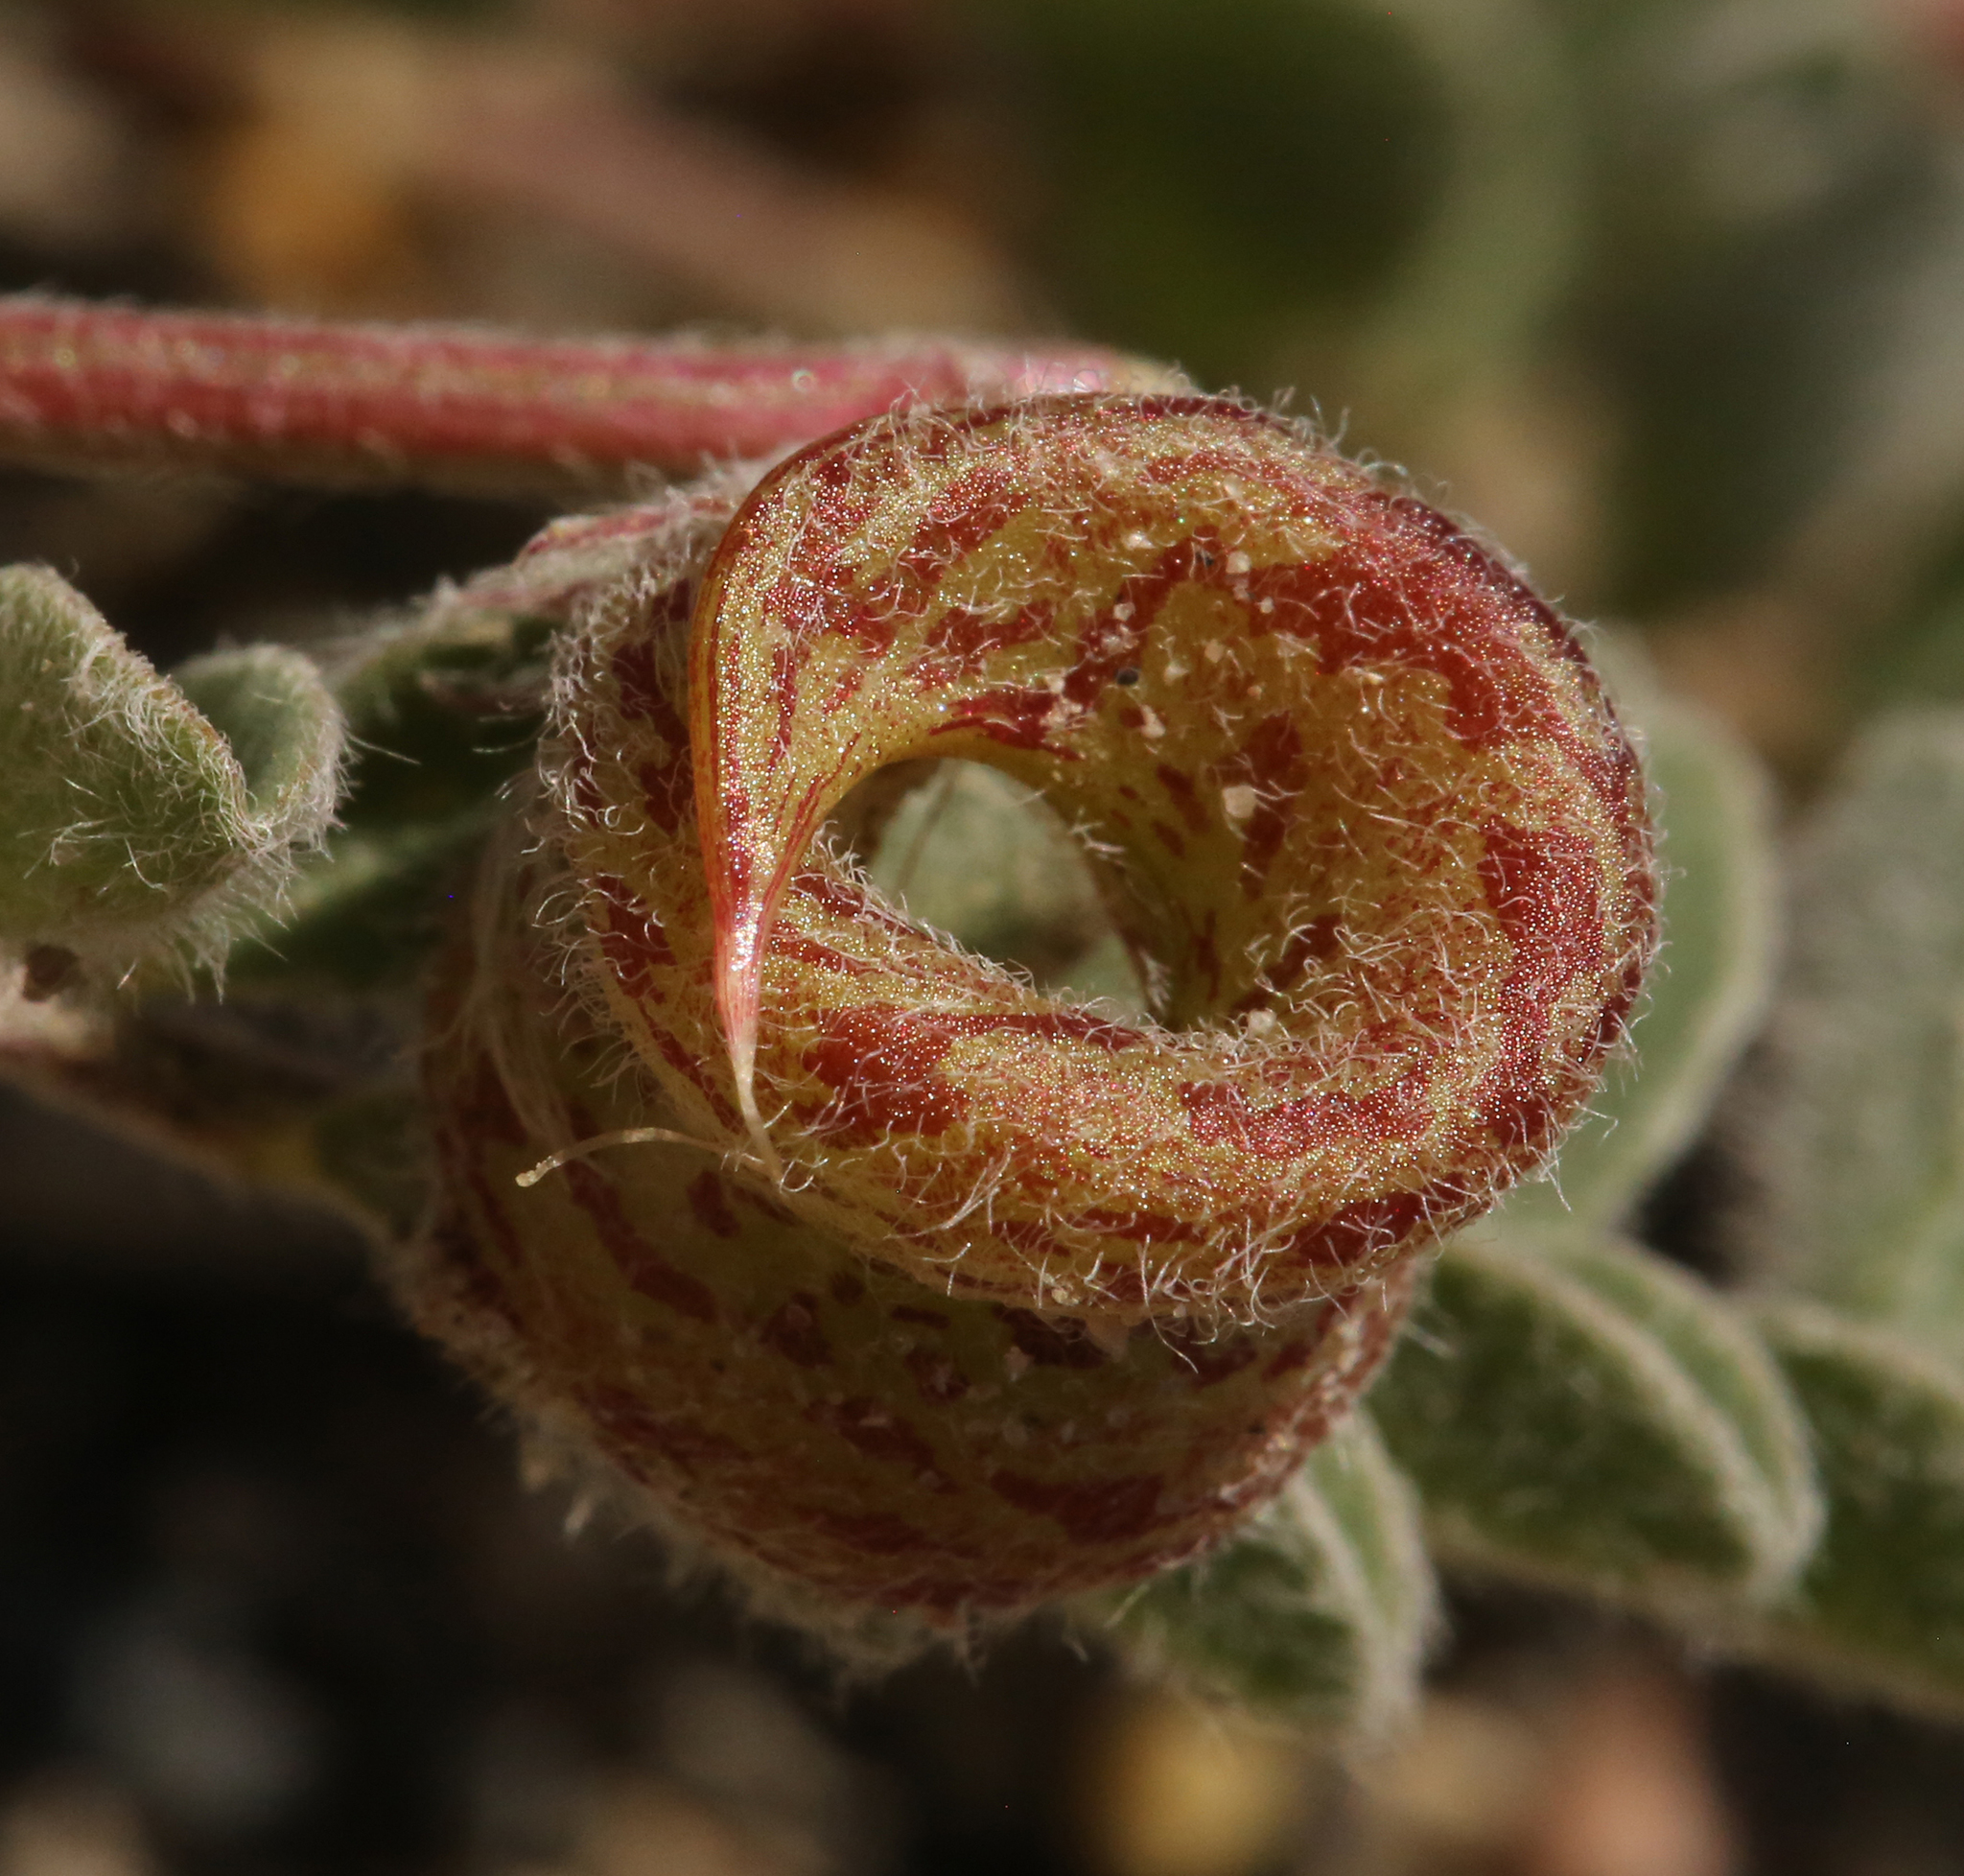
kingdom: Plantae
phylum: Tracheophyta
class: Magnoliopsida
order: Fabales
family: Fabaceae
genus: Astragalus
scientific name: Astragalus lentiginosus
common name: Freckled milkvetch
